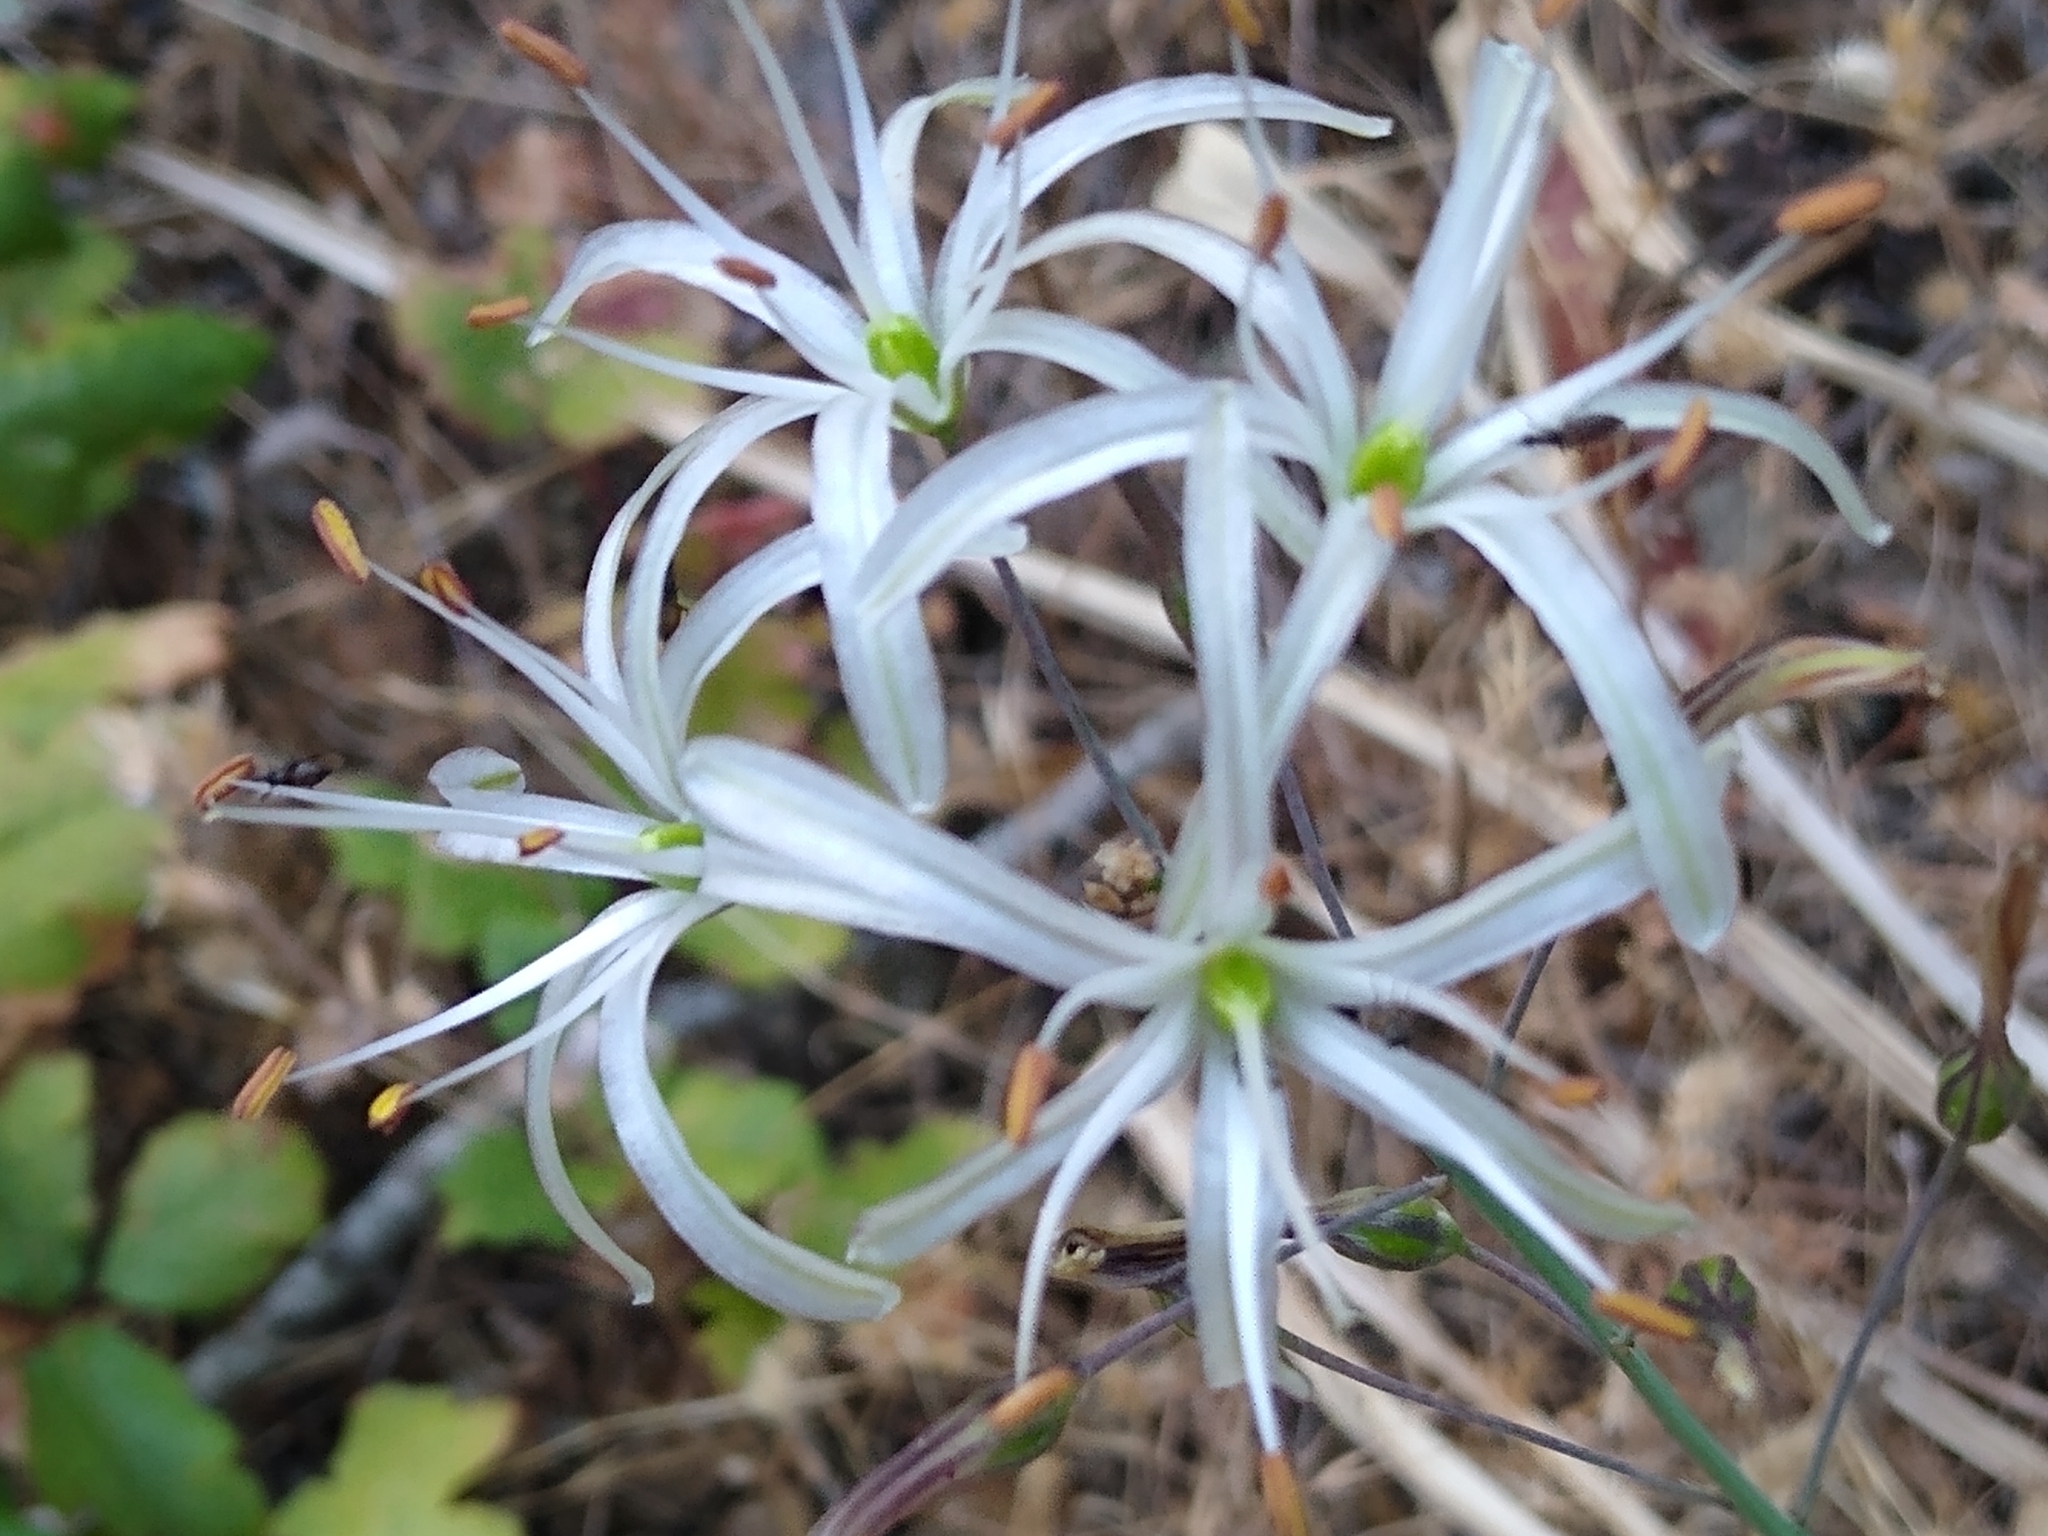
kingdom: Plantae
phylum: Tracheophyta
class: Liliopsida
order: Asparagales
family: Asparagaceae
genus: Chlorogalum
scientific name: Chlorogalum pomeridianum
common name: Amole
